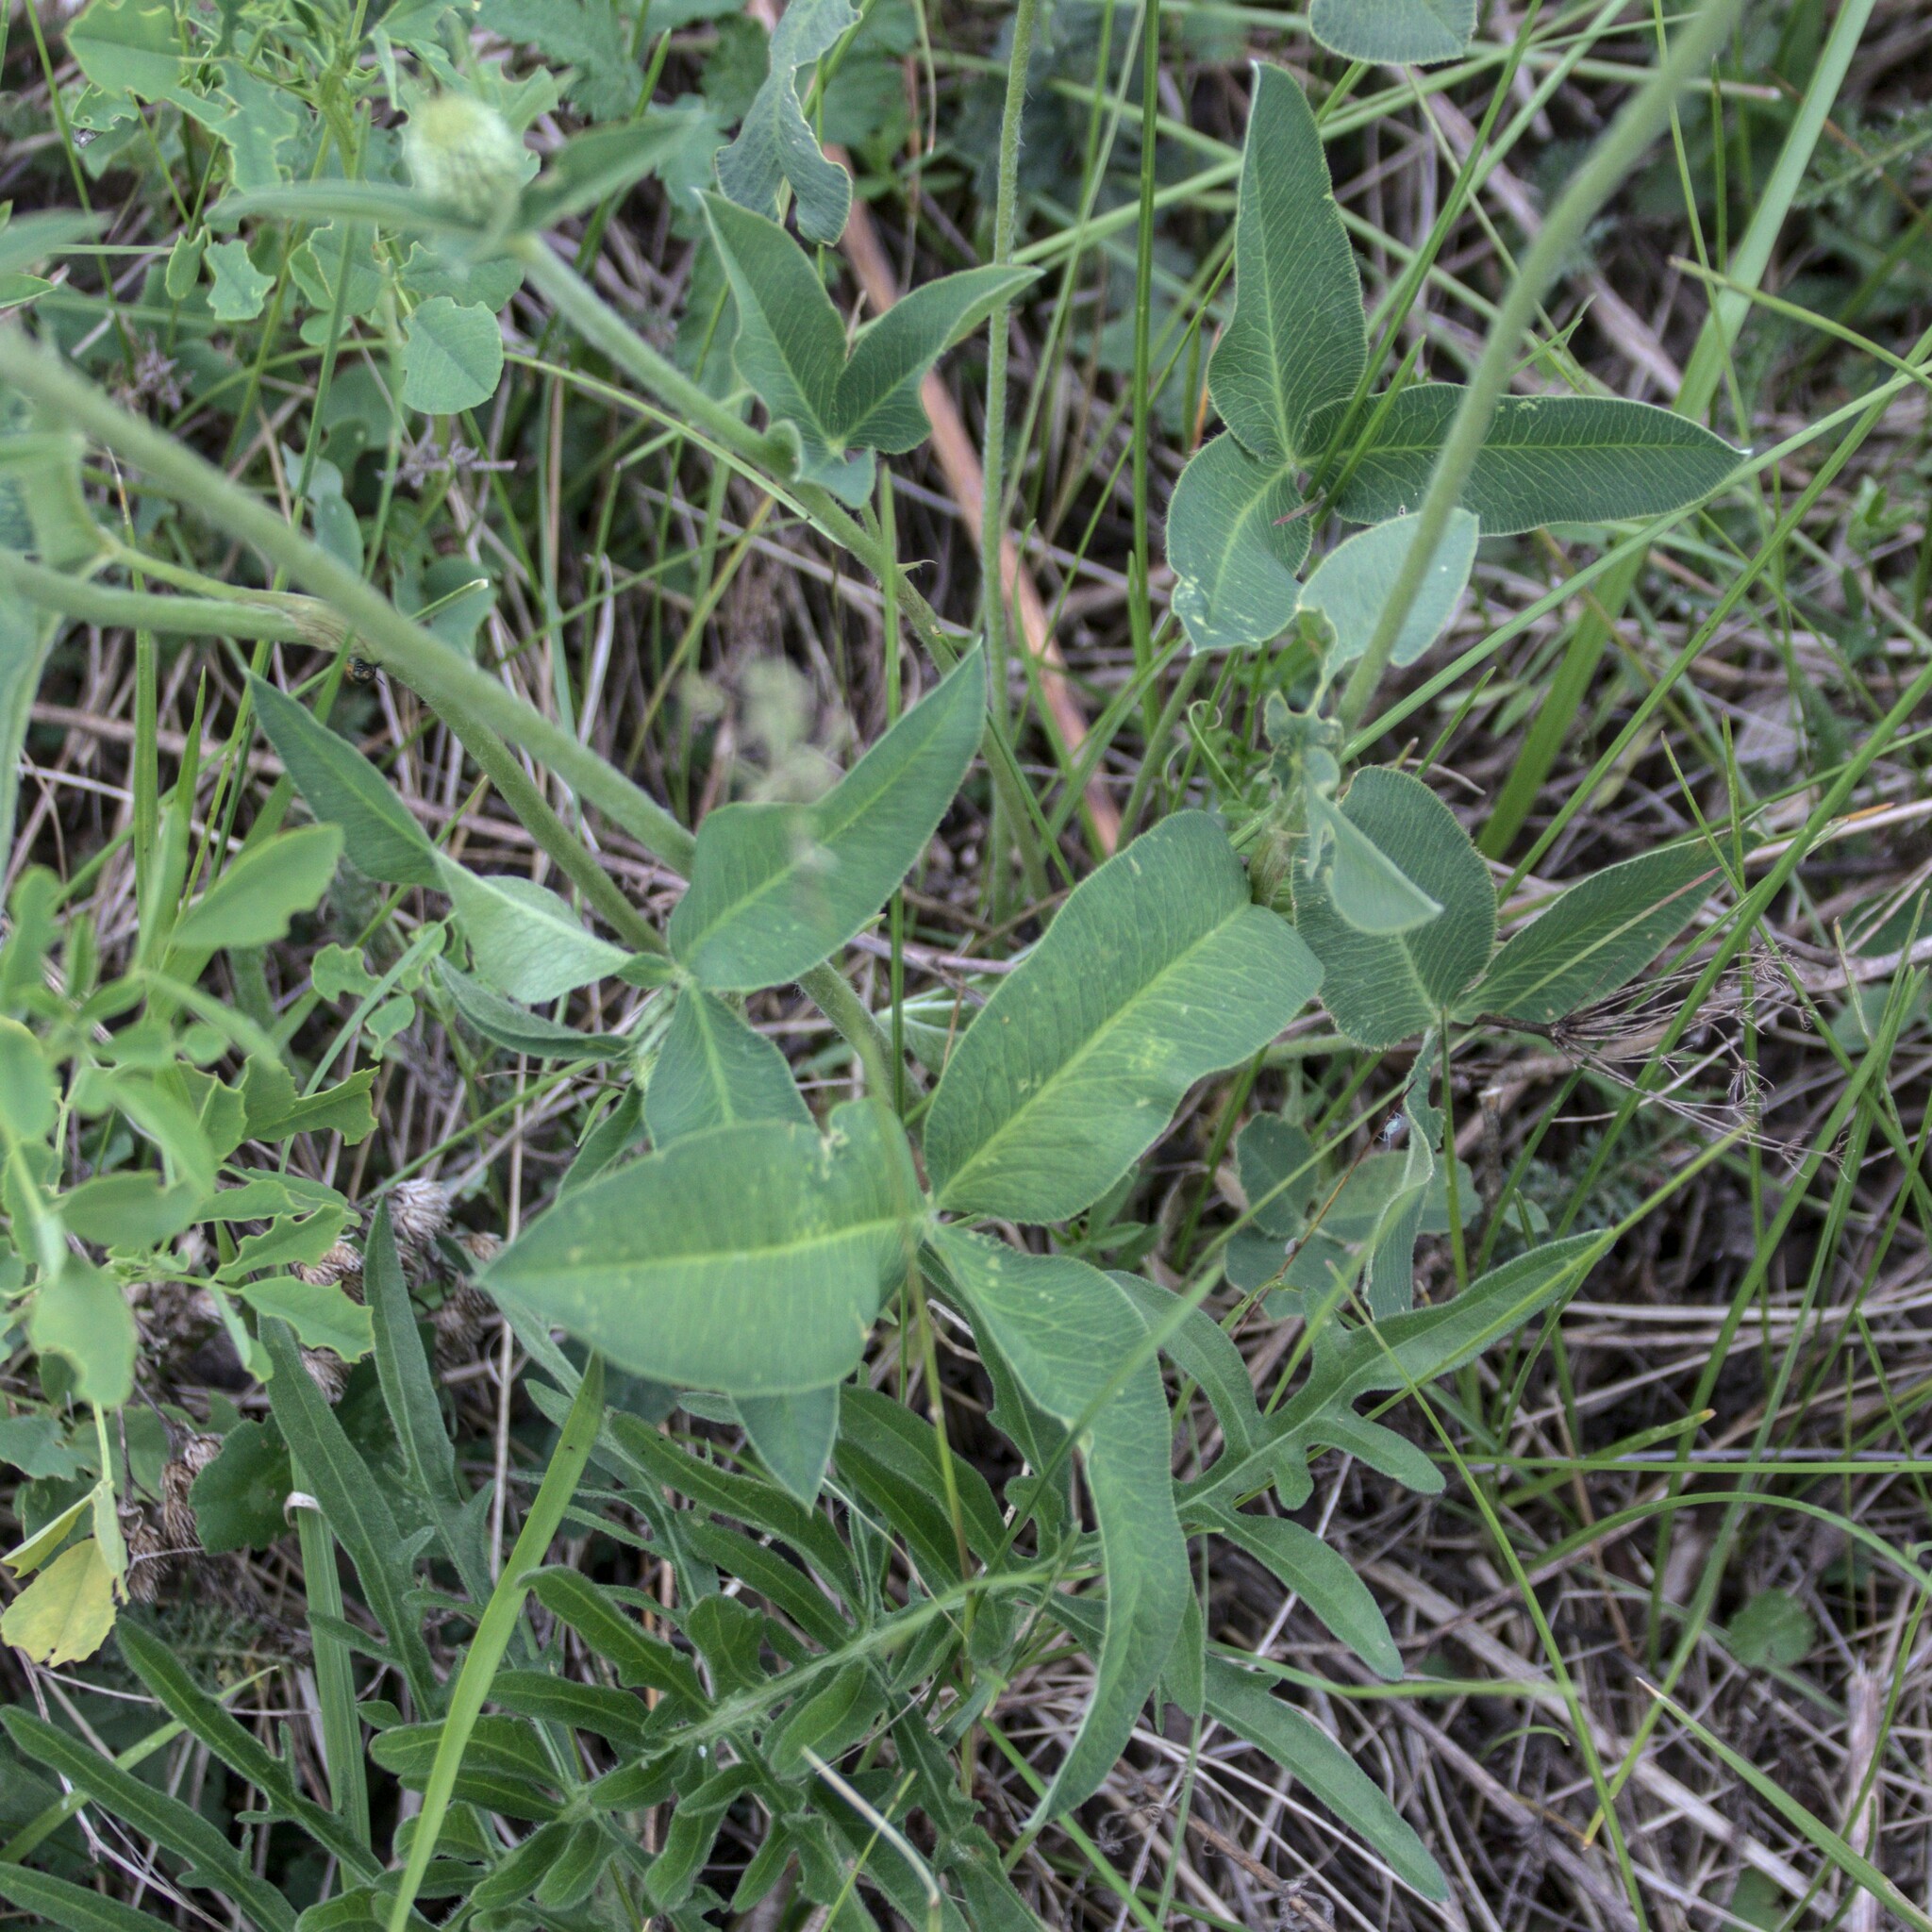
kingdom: Plantae
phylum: Tracheophyta
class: Magnoliopsida
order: Fabales
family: Fabaceae
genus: Trifolium
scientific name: Trifolium montanum
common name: Mountain clover
